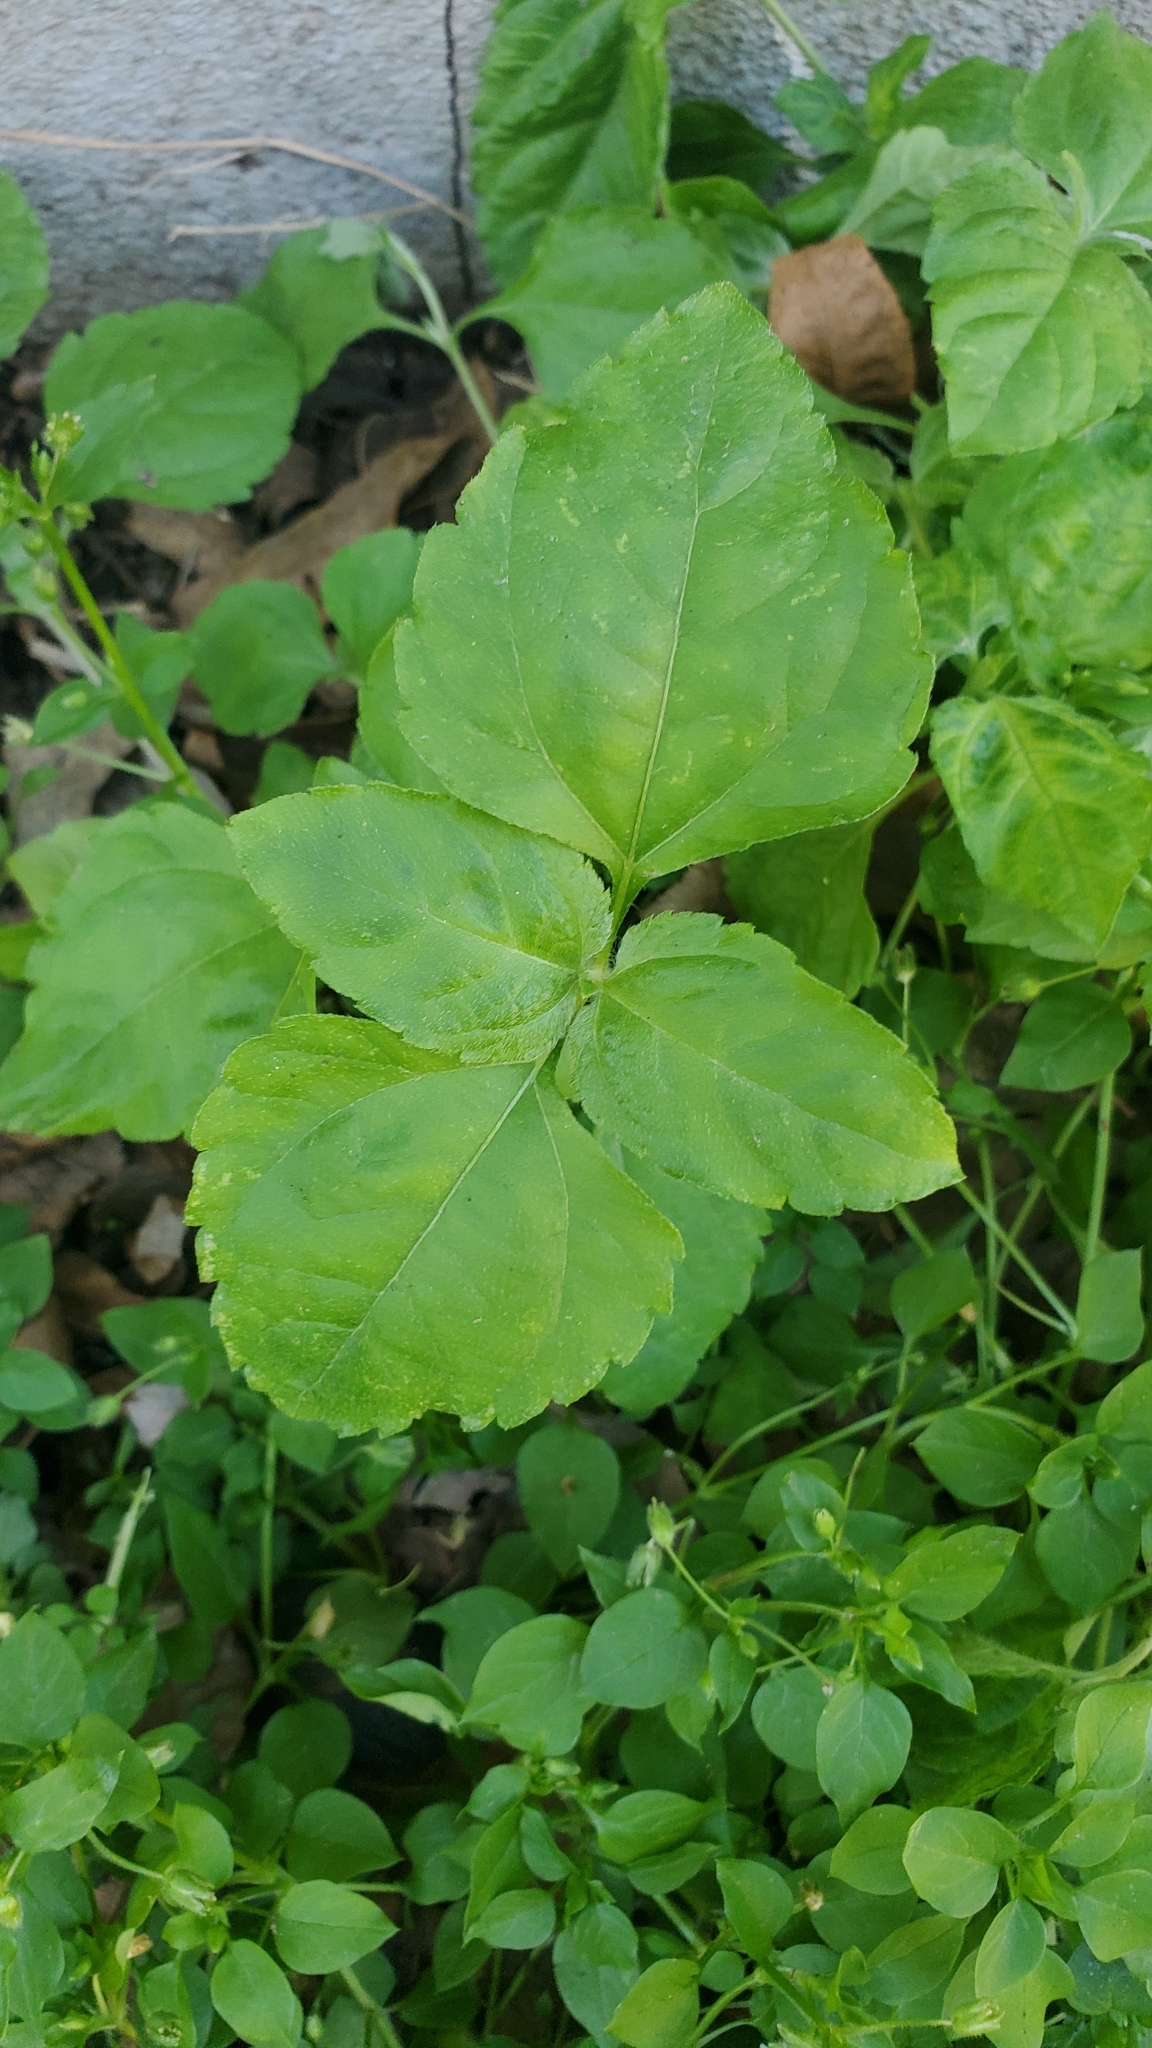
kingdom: Plantae
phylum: Tracheophyta
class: Magnoliopsida
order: Asterales
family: Asteraceae
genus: Calyptocarpus
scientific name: Calyptocarpus vialis
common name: Straggler daisy
